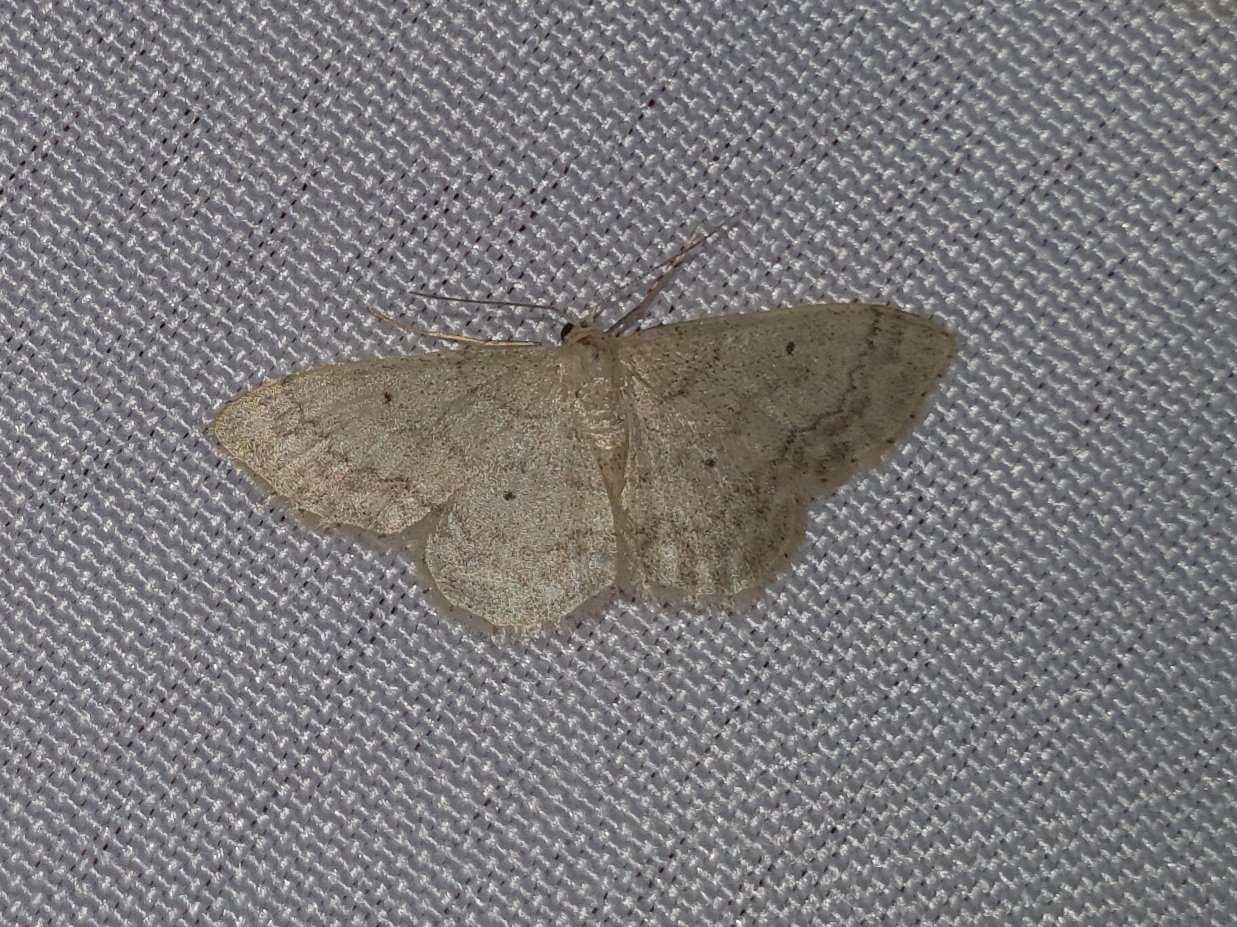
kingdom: Animalia
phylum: Arthropoda
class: Insecta
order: Lepidoptera
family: Geometridae
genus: Idaea
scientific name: Idaea biselata
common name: Small fan-footed wave
